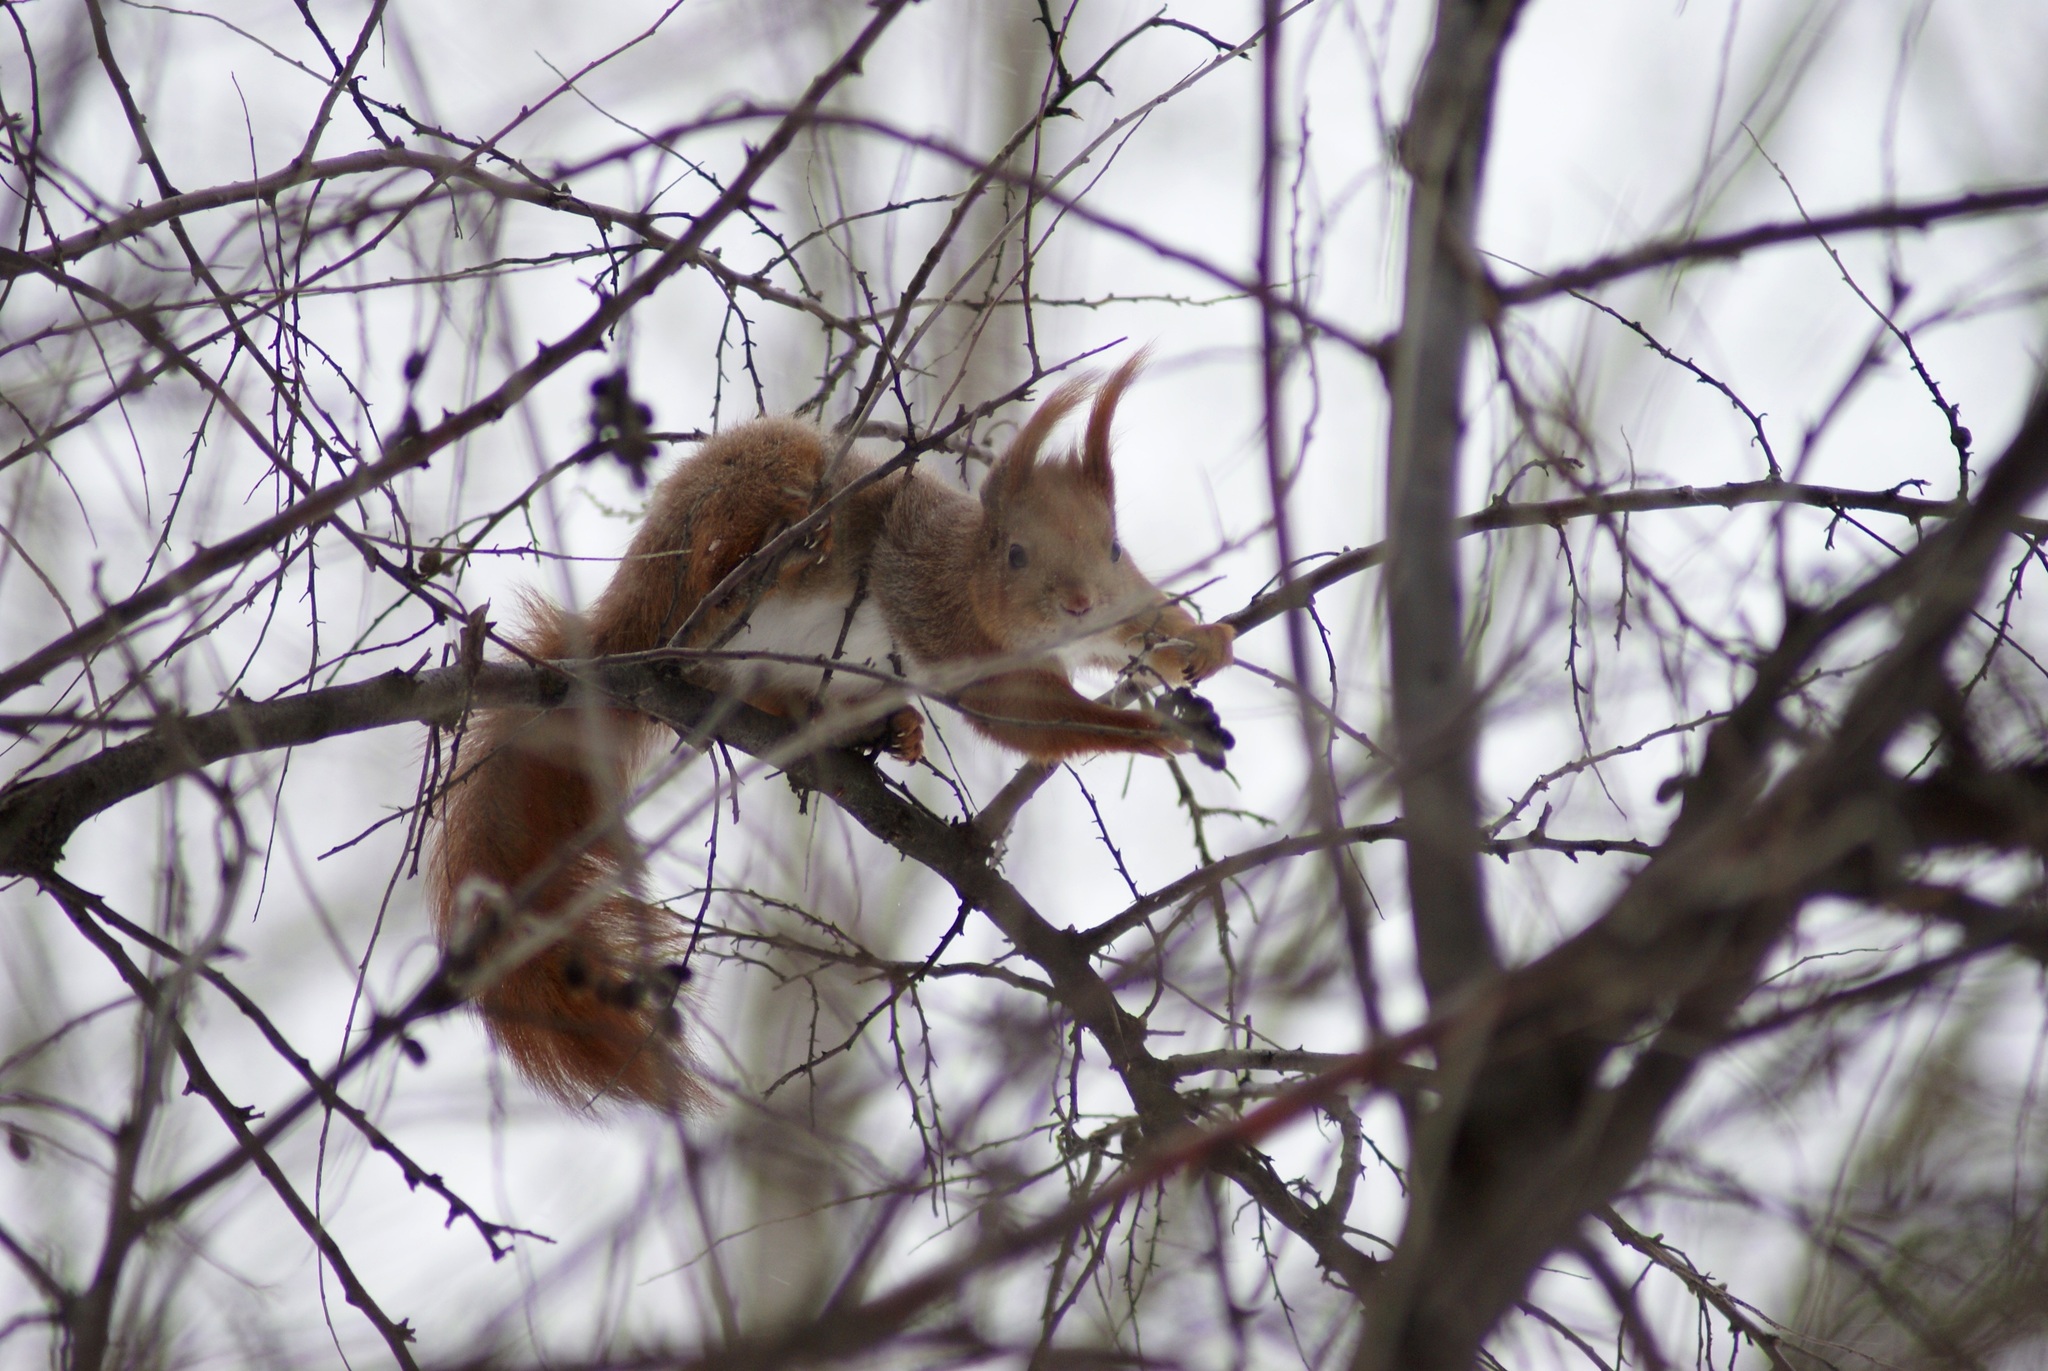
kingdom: Animalia
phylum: Chordata
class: Mammalia
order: Rodentia
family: Sciuridae
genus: Sciurus
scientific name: Sciurus vulgaris
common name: Eurasian red squirrel
